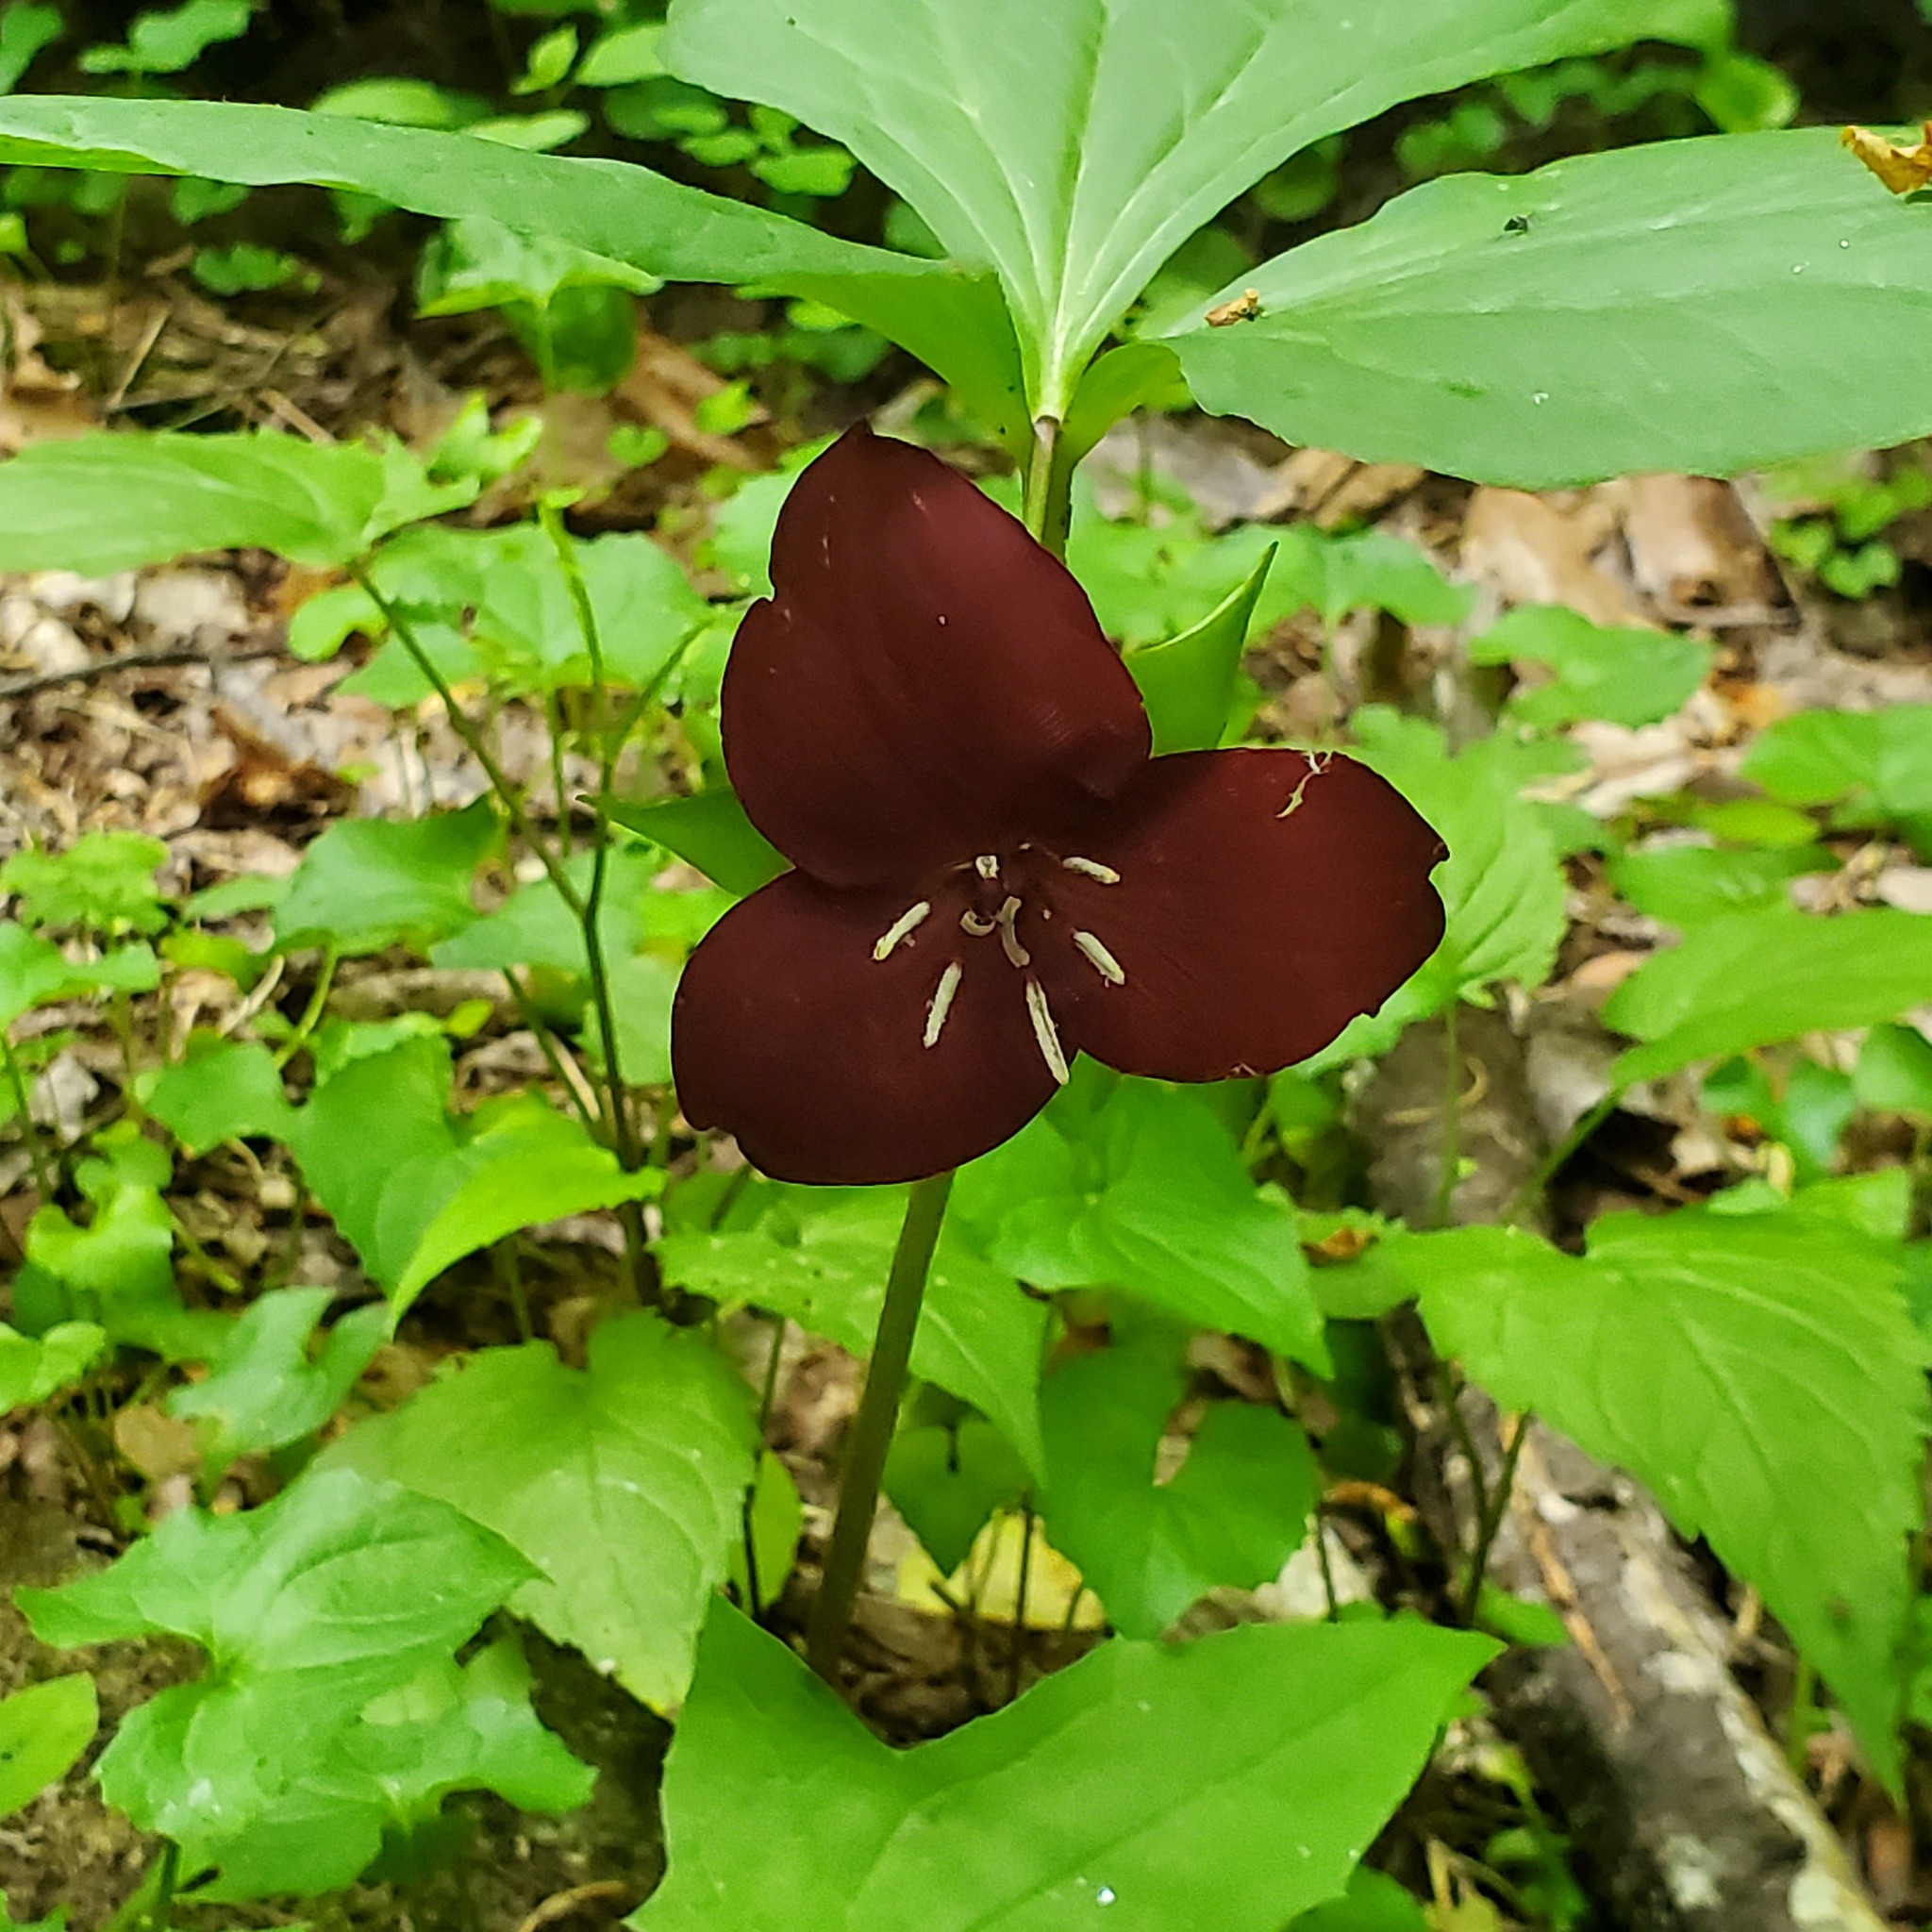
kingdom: Plantae
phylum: Tracheophyta
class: Liliopsida
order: Liliales
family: Melanthiaceae
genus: Trillium
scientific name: Trillium vaseyi
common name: Sweet trillium
